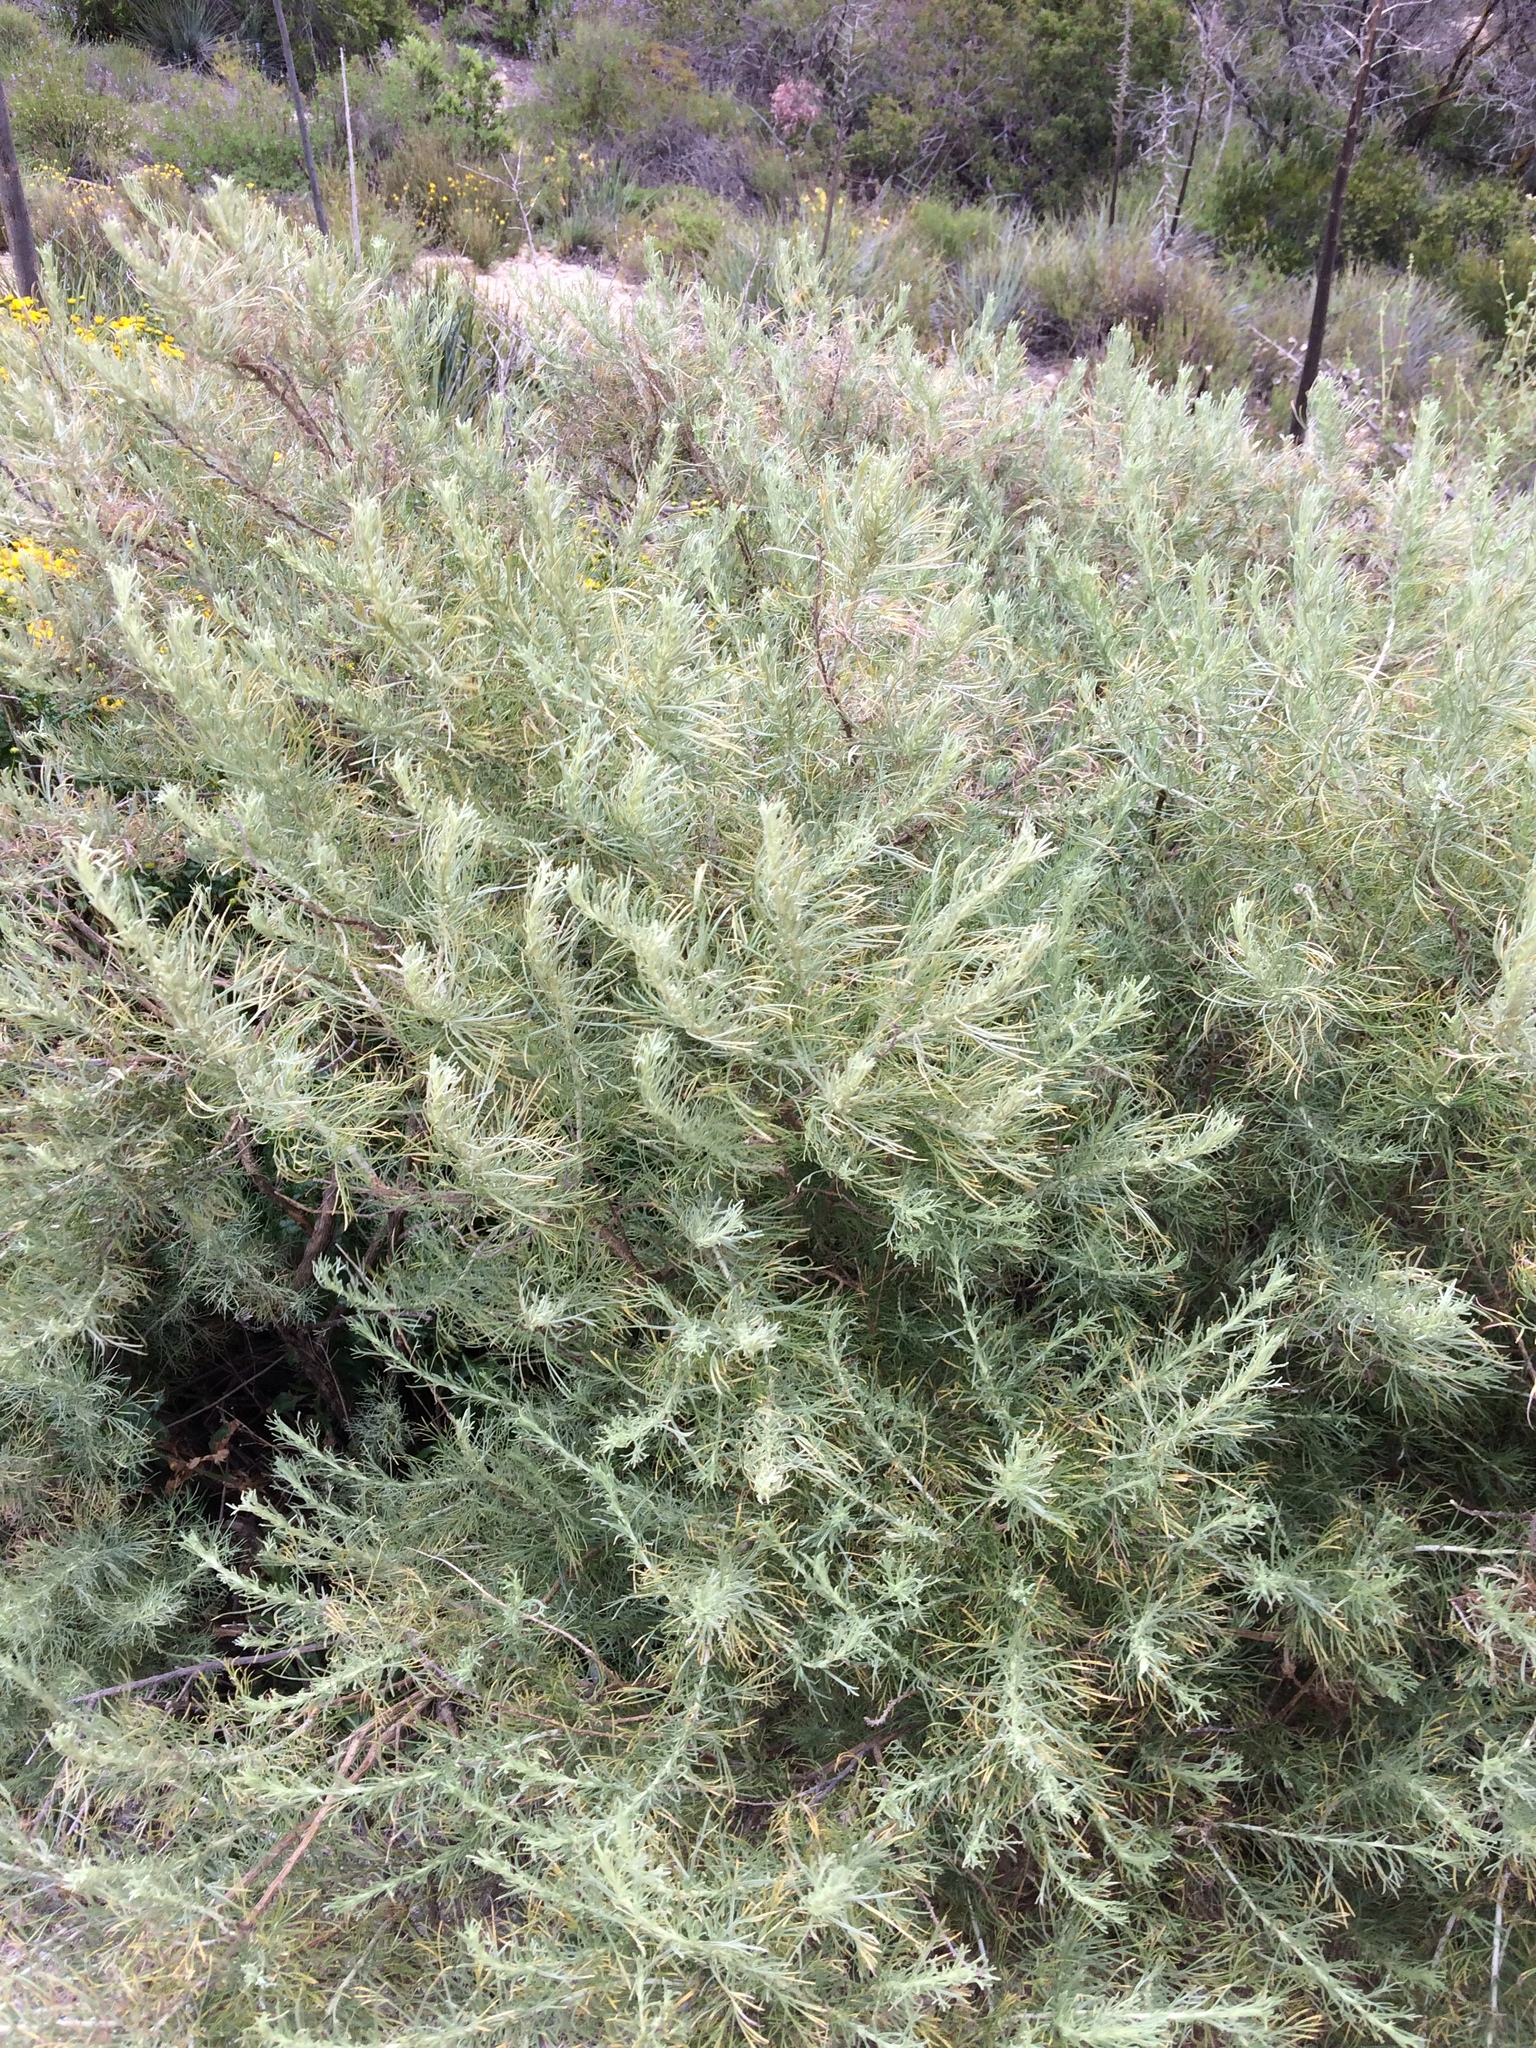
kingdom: Plantae
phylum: Tracheophyta
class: Magnoliopsida
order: Asterales
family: Asteraceae
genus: Artemisia
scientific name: Artemisia californica
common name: California sagebrush
